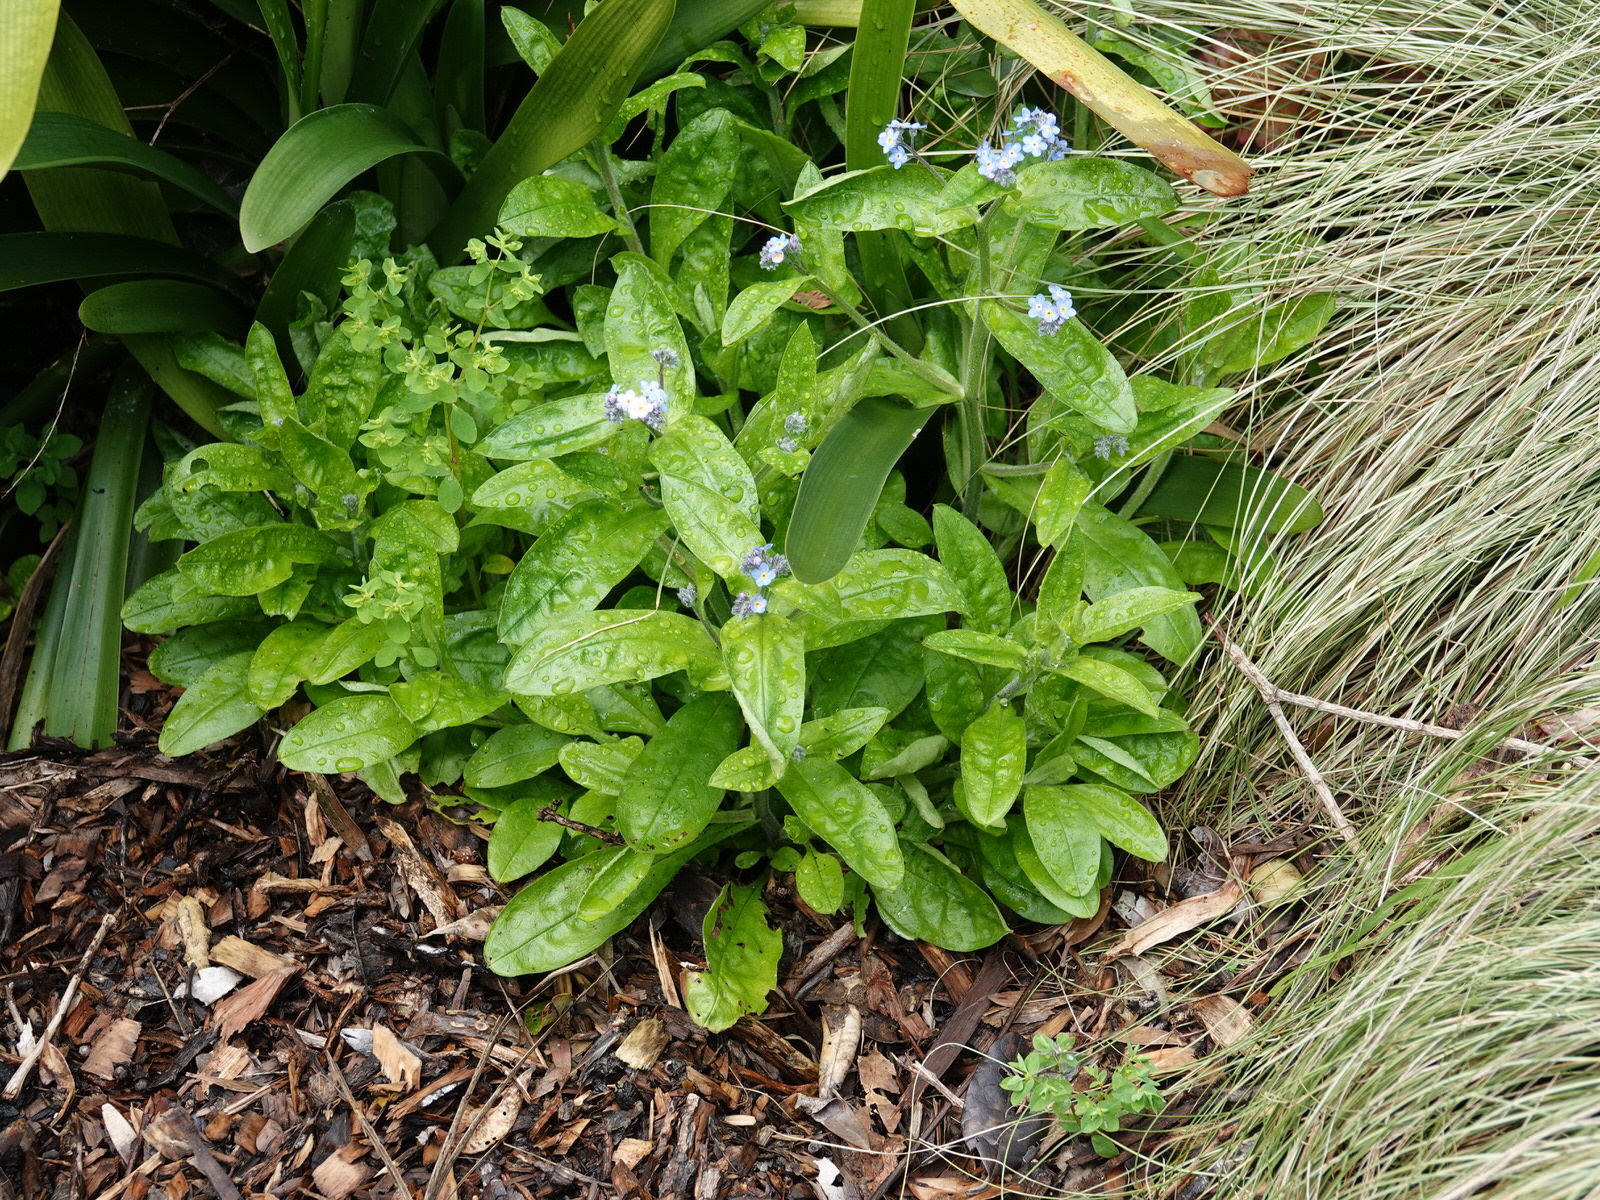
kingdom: Plantae
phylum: Tracheophyta
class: Magnoliopsida
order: Boraginales
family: Boraginaceae
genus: Myosotis
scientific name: Myosotis sylvatica
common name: Wood forget-me-not
